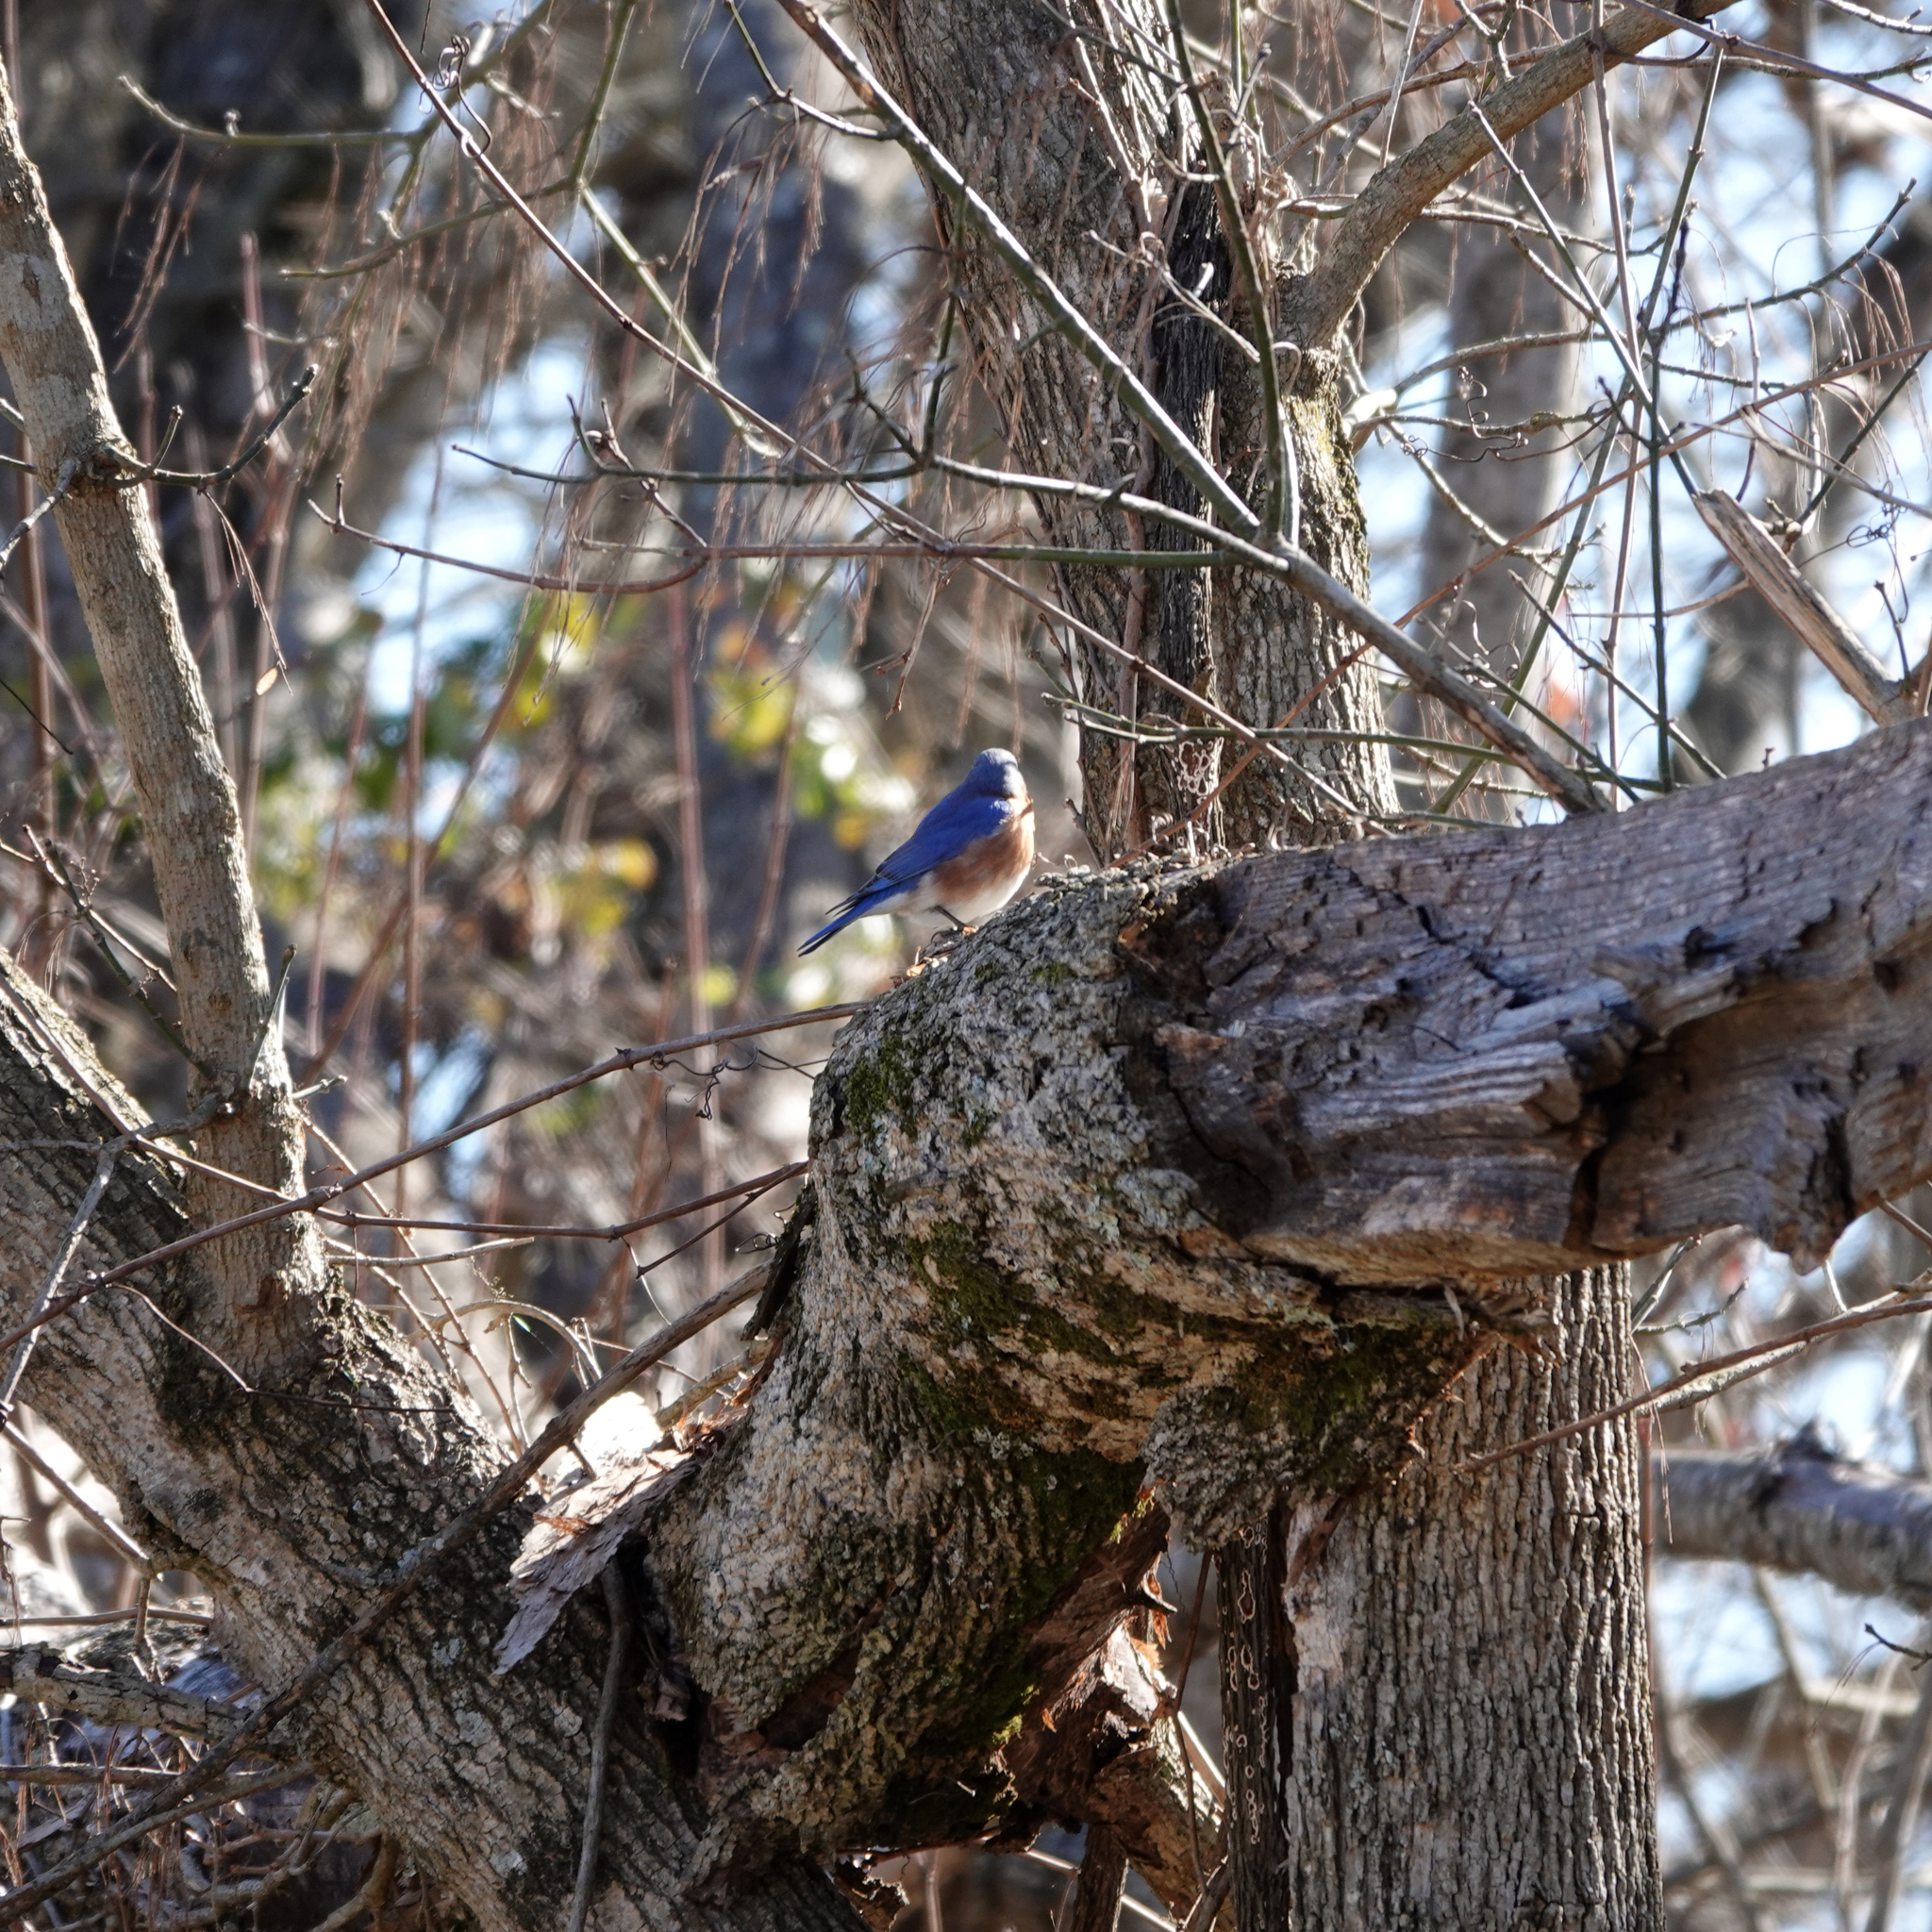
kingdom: Animalia
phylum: Chordata
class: Aves
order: Passeriformes
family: Turdidae
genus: Sialia
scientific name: Sialia sialis
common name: Eastern bluebird
